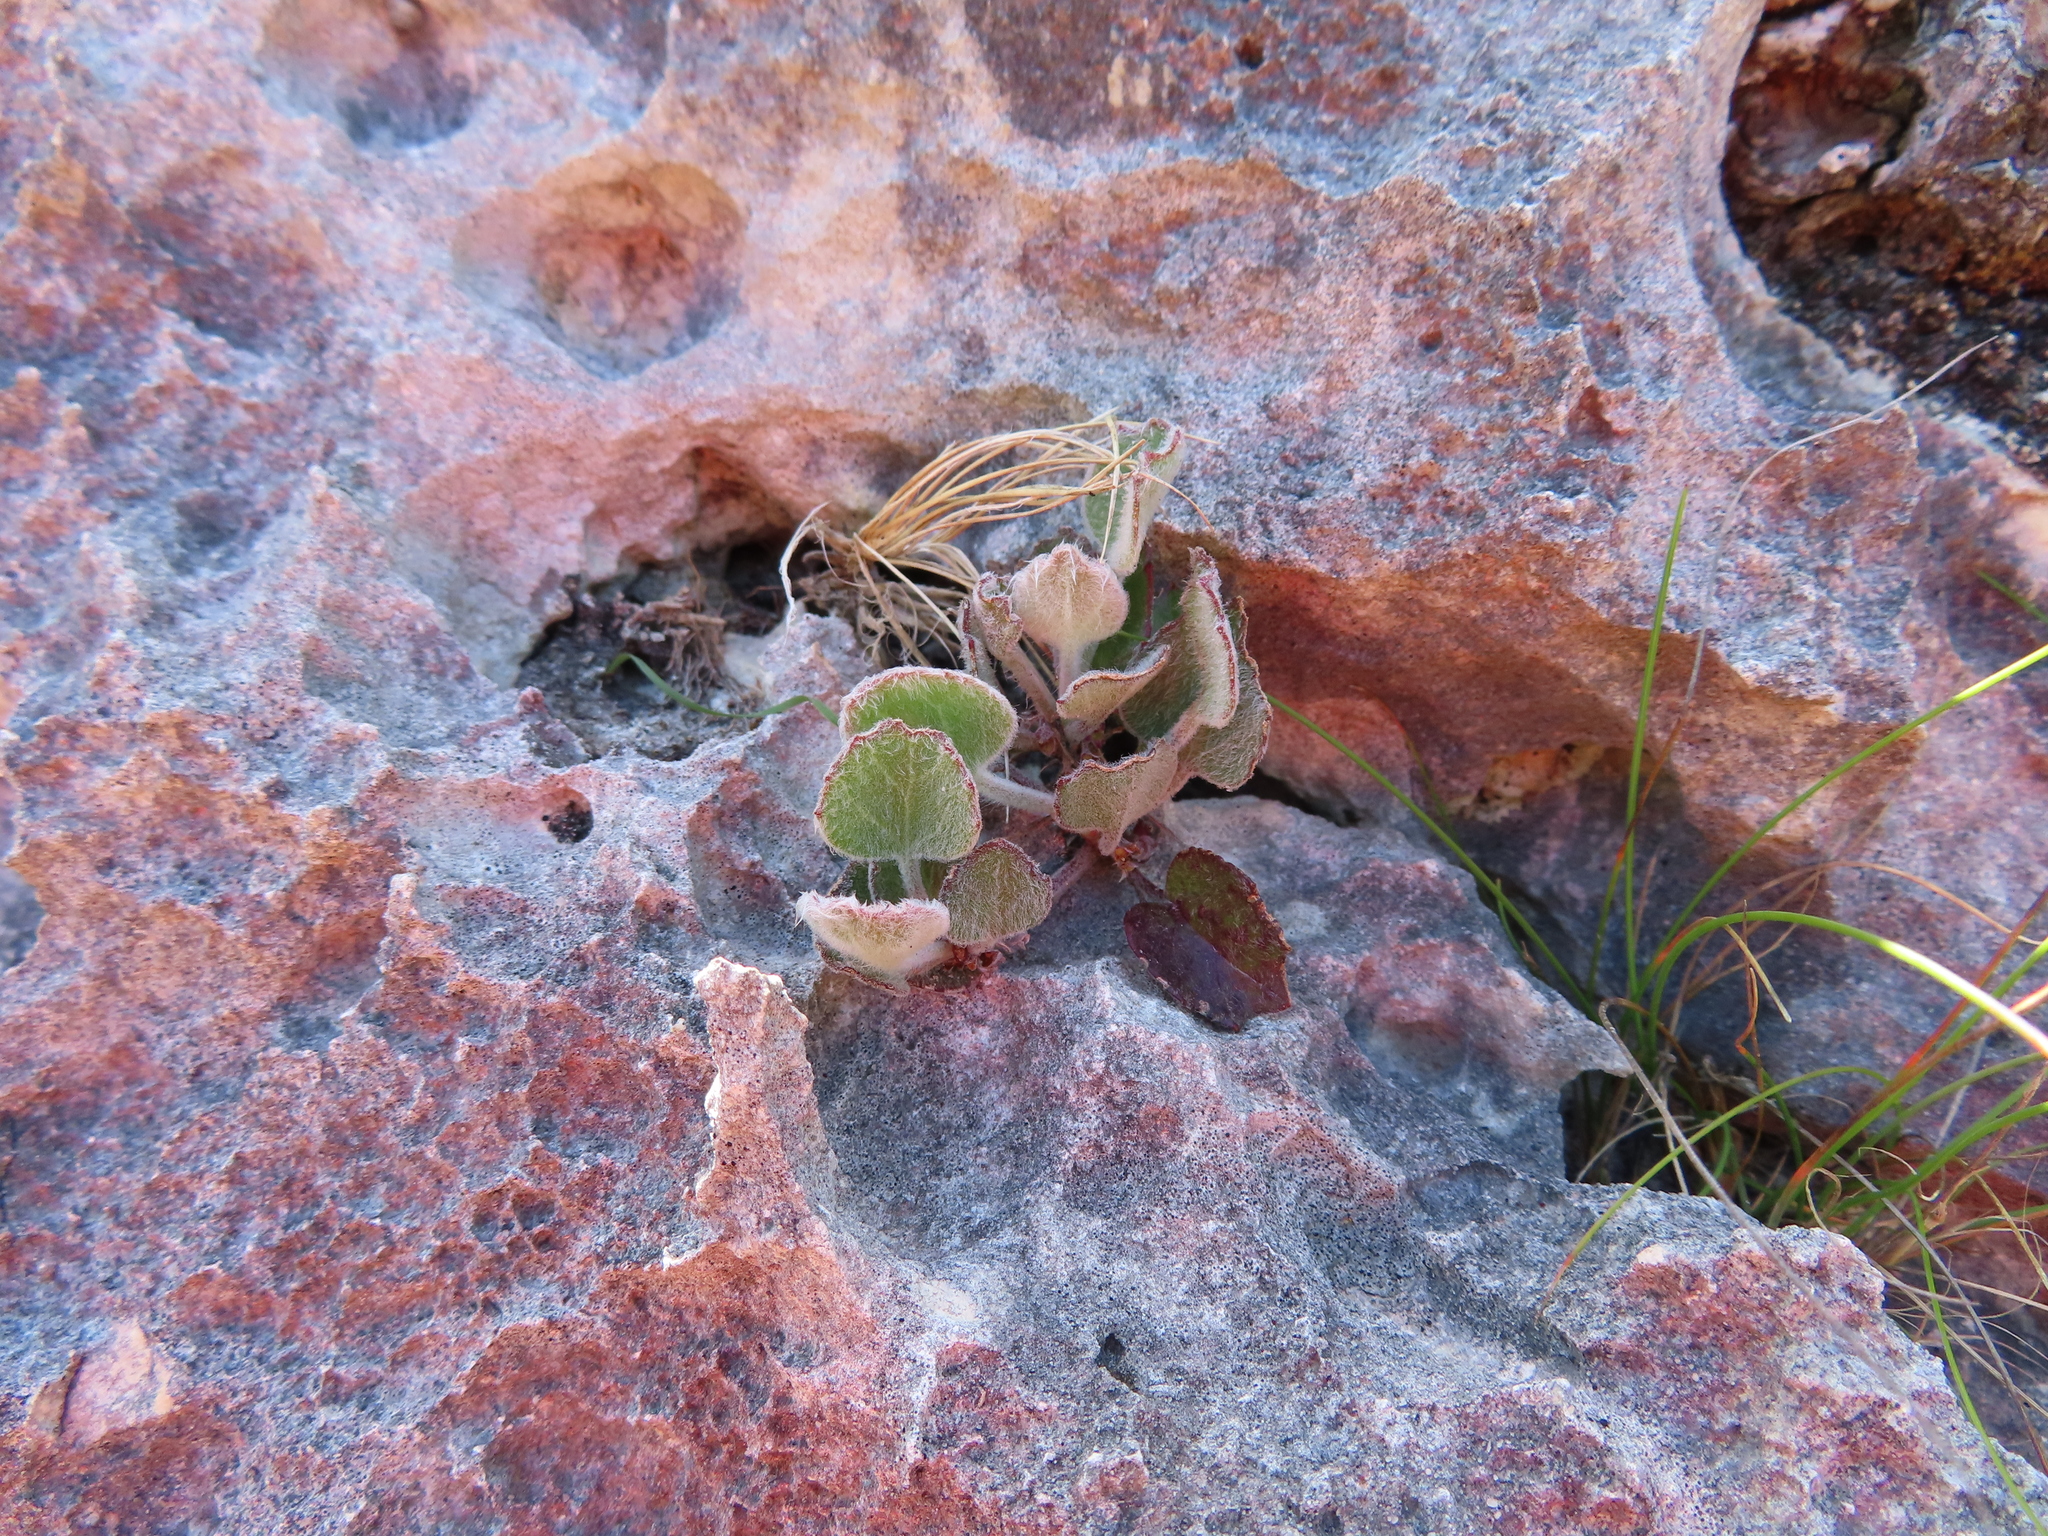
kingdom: Plantae
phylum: Tracheophyta
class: Magnoliopsida
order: Apiales
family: Apiaceae
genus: Centella
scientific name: Centella calcaria
